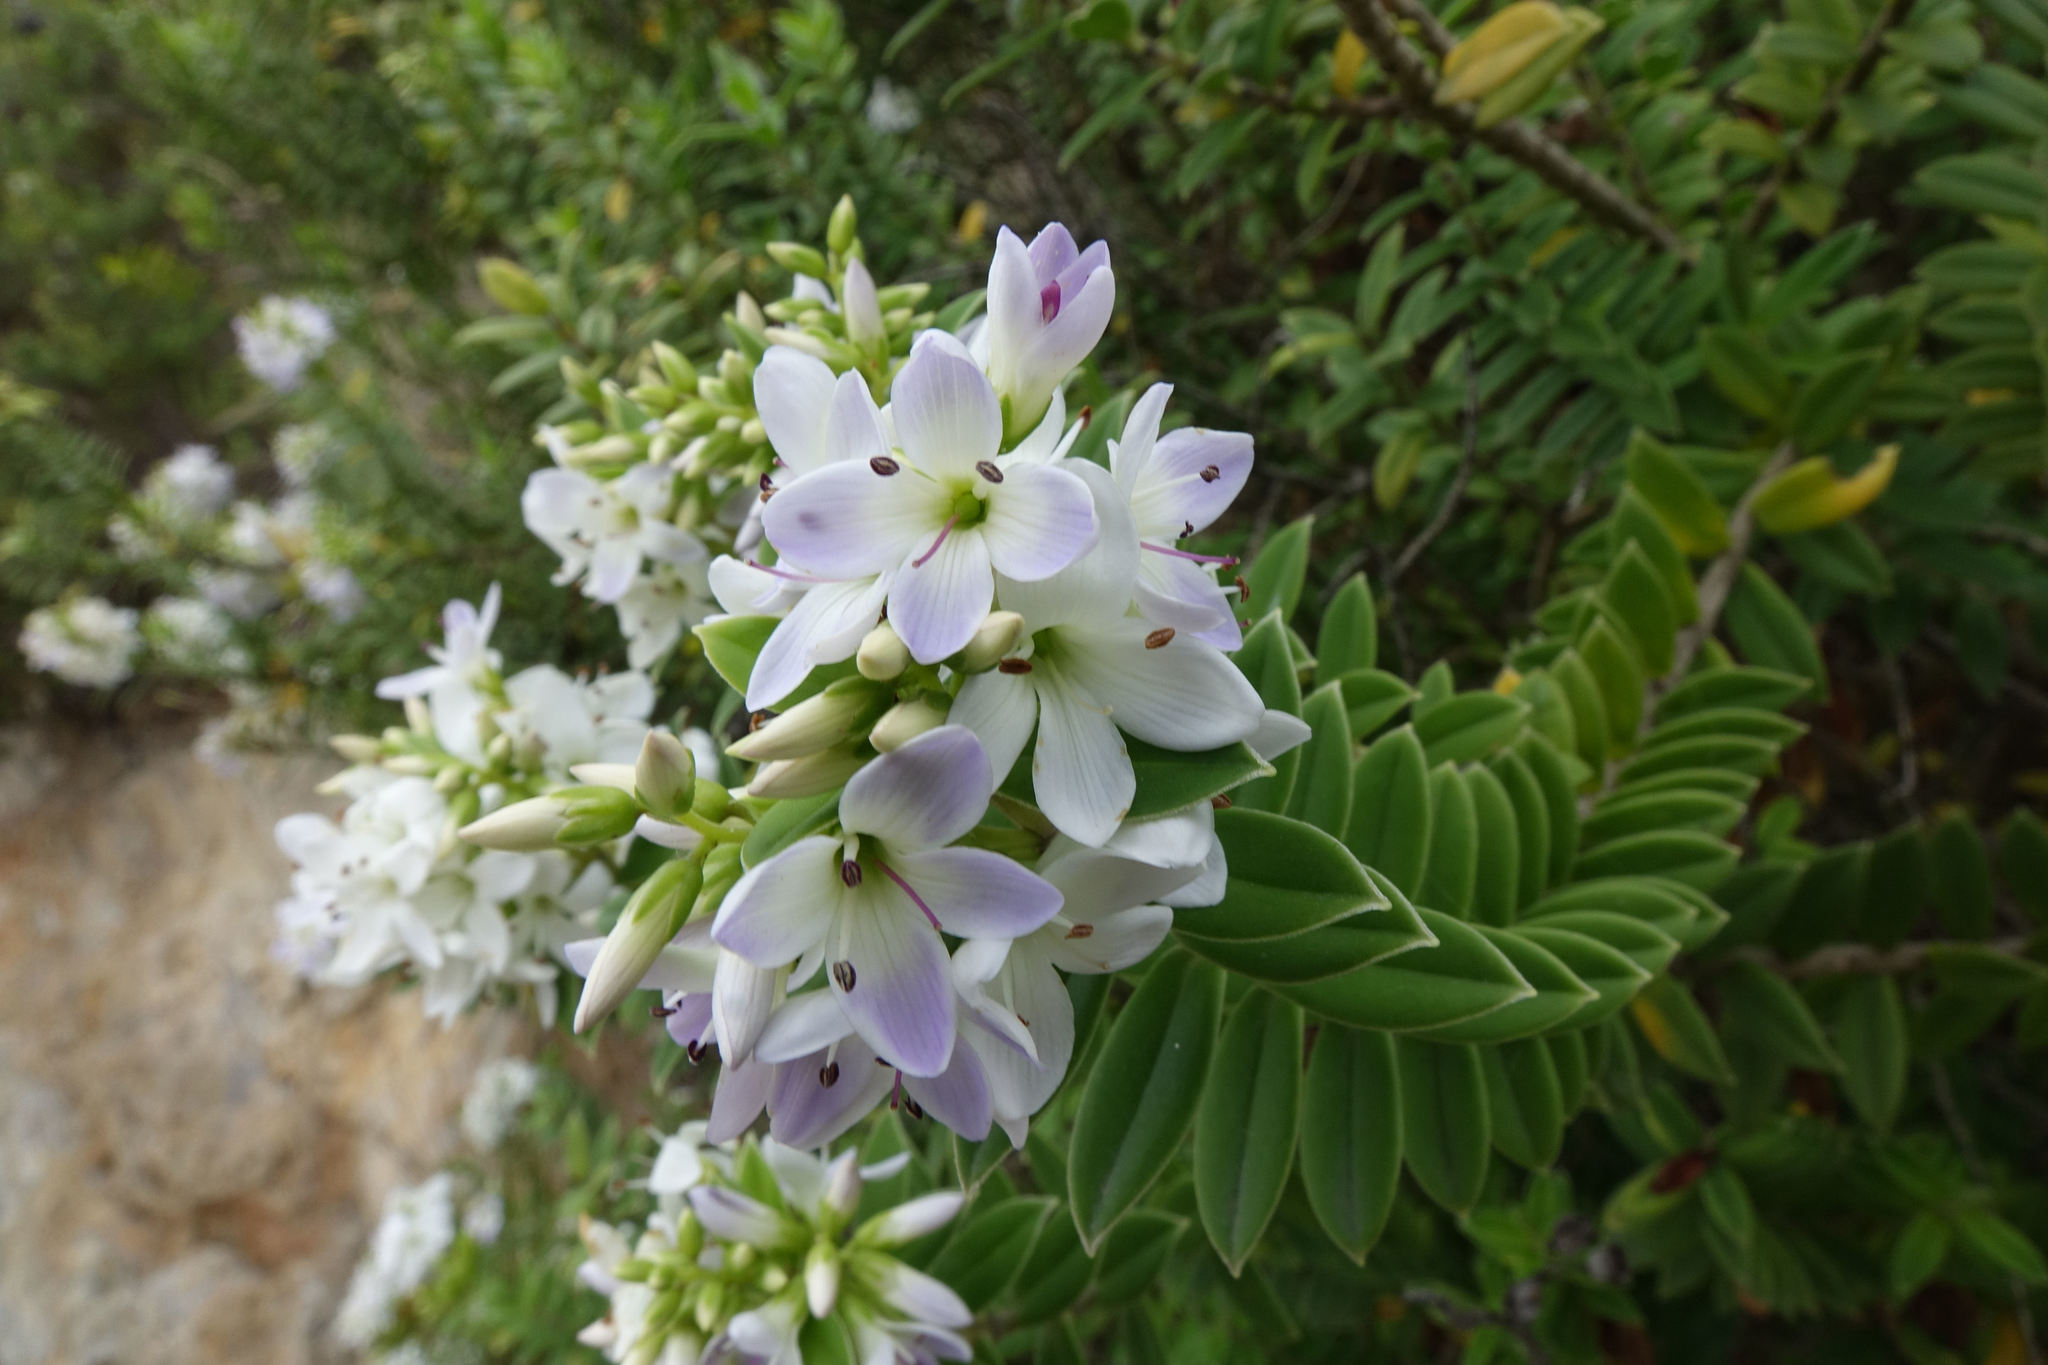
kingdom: Plantae
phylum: Tracheophyta
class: Magnoliopsida
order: Lamiales
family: Plantaginaceae
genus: Veronica
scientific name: Veronica elliptica
